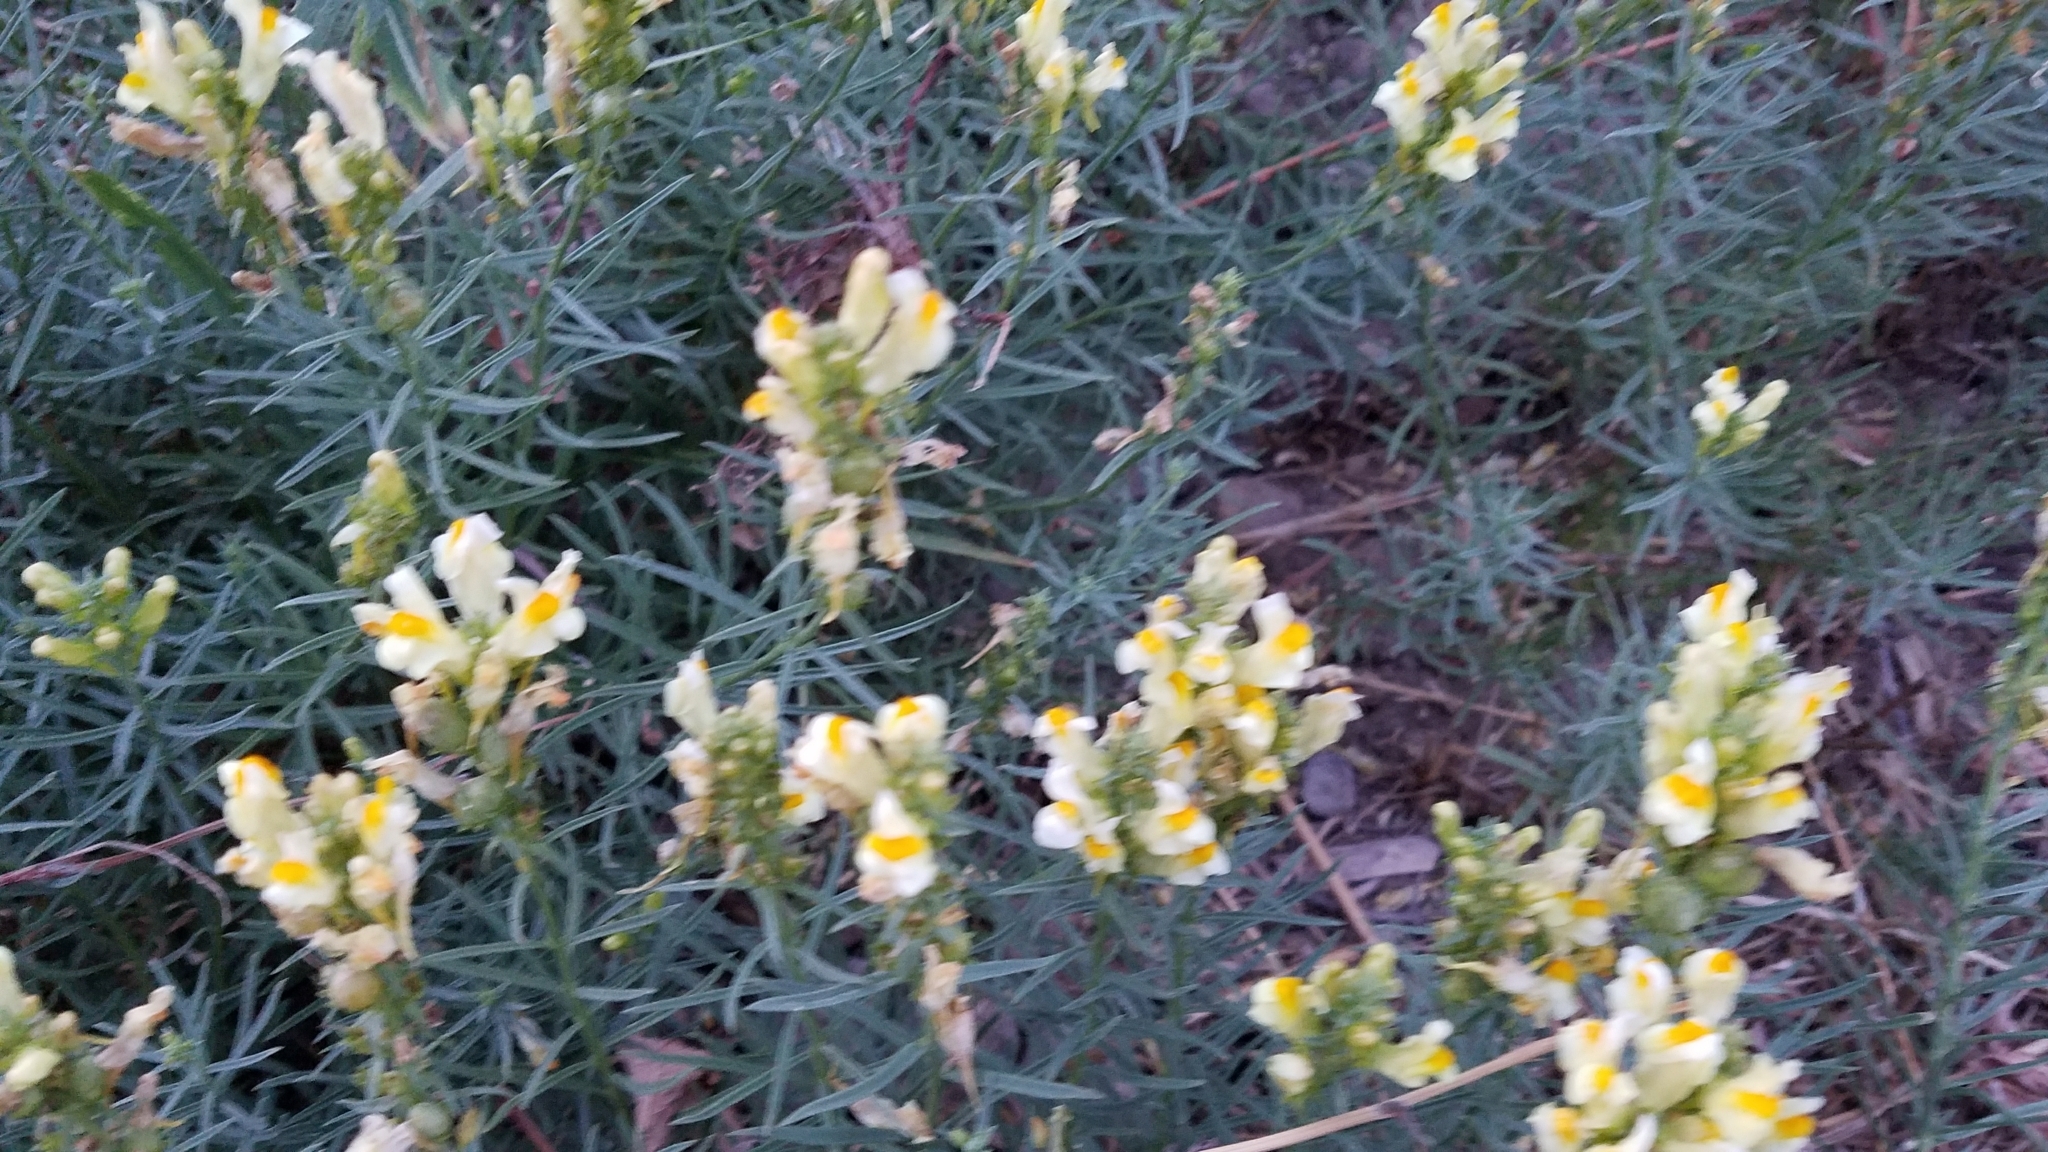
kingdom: Plantae
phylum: Tracheophyta
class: Magnoliopsida
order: Lamiales
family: Plantaginaceae
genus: Linaria
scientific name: Linaria vulgaris
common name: Butter and eggs
